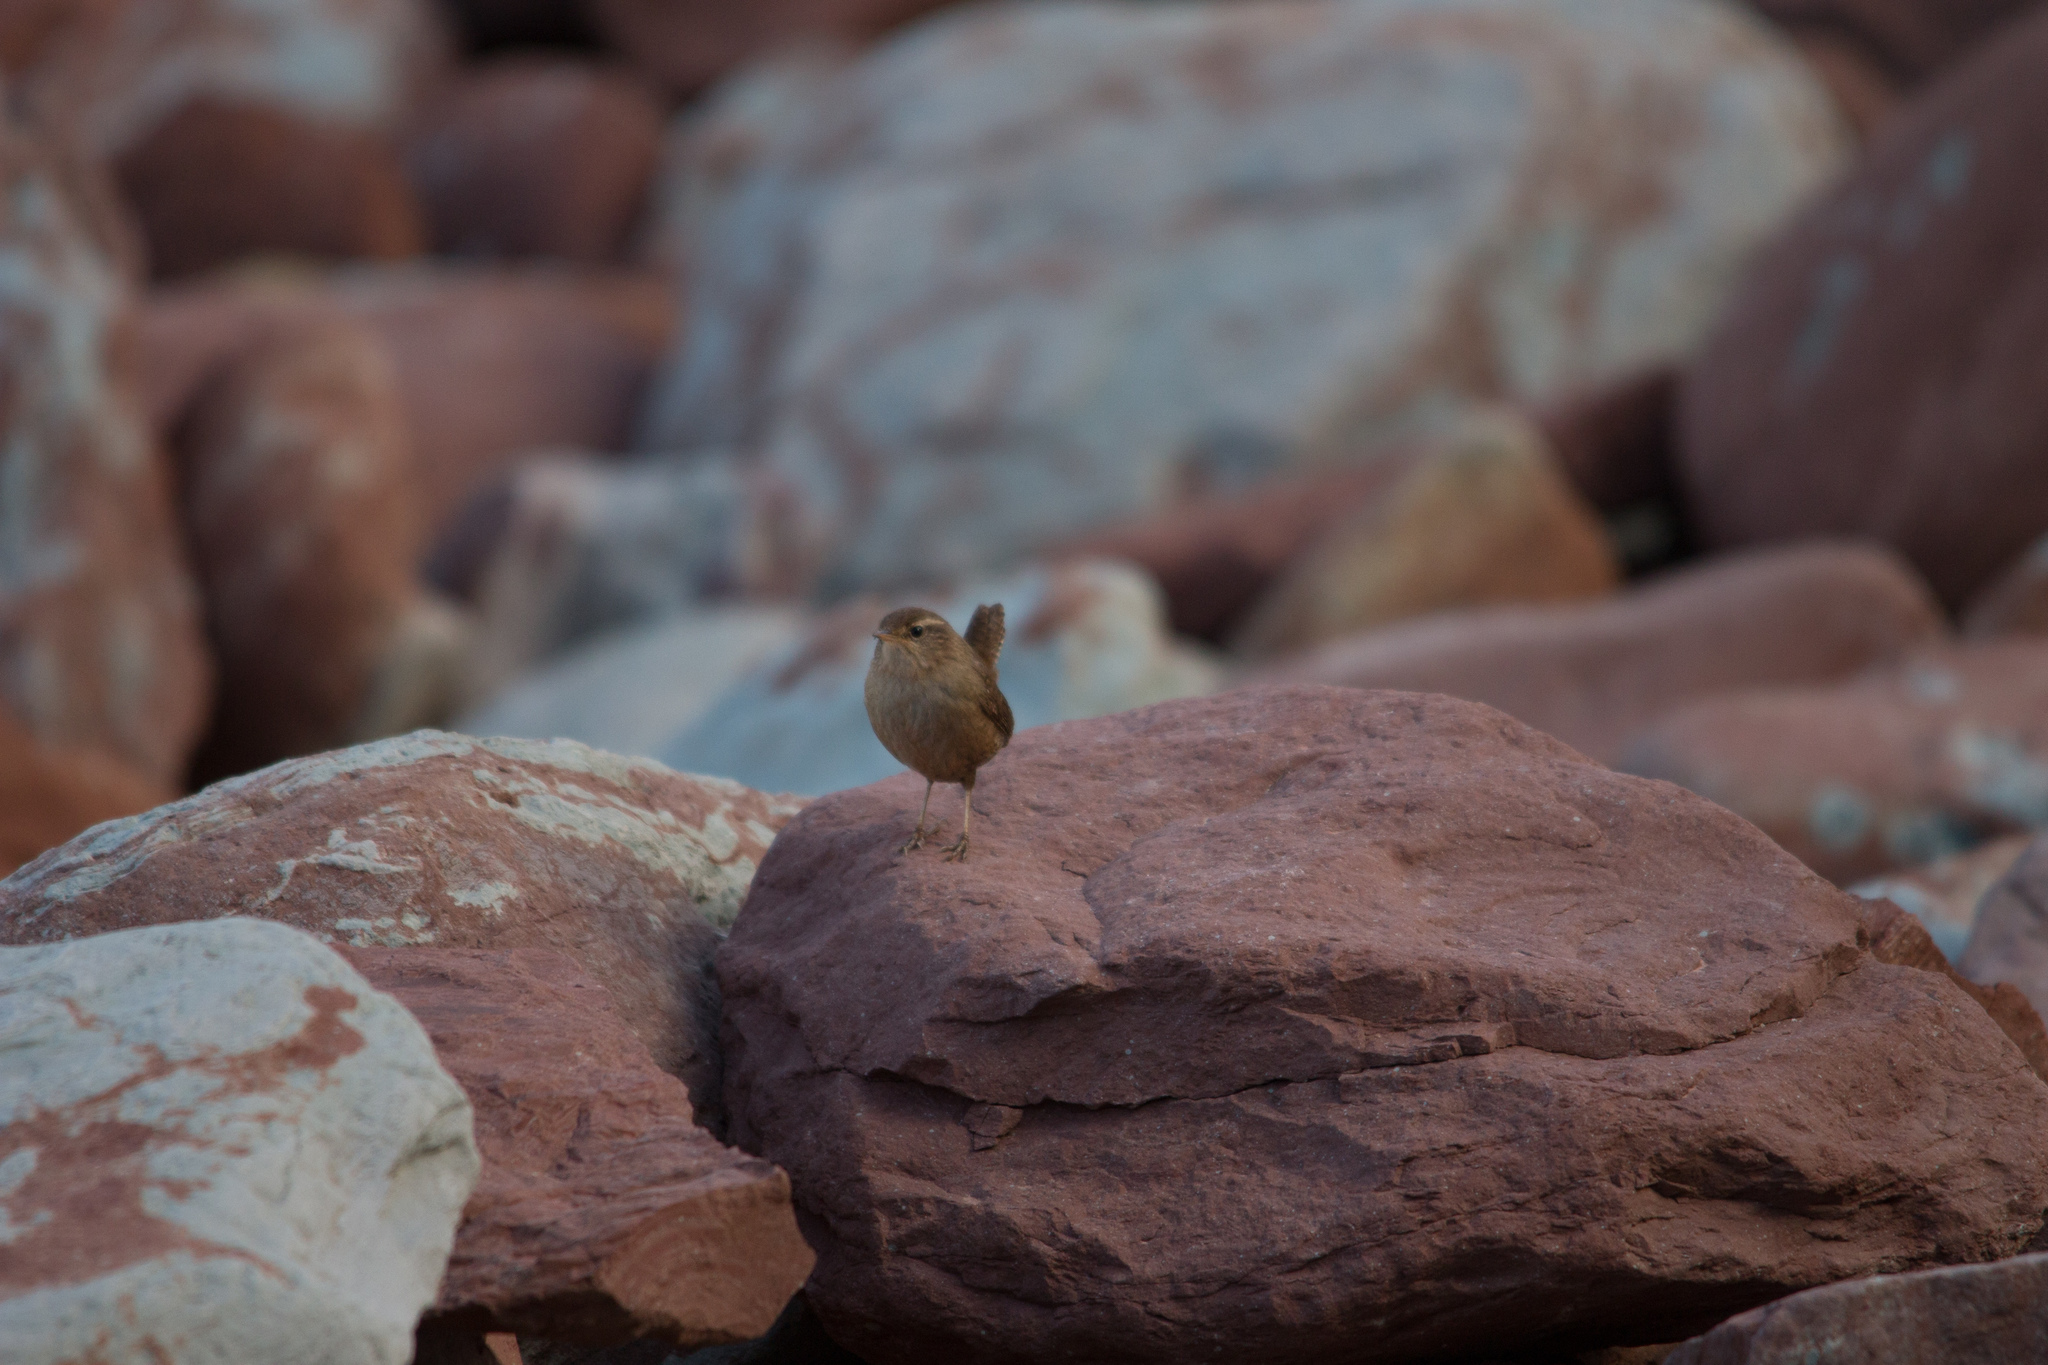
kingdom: Animalia
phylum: Chordata
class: Aves
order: Passeriformes
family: Troglodytidae
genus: Troglodytes
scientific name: Troglodytes troglodytes
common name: Eurasian wren
